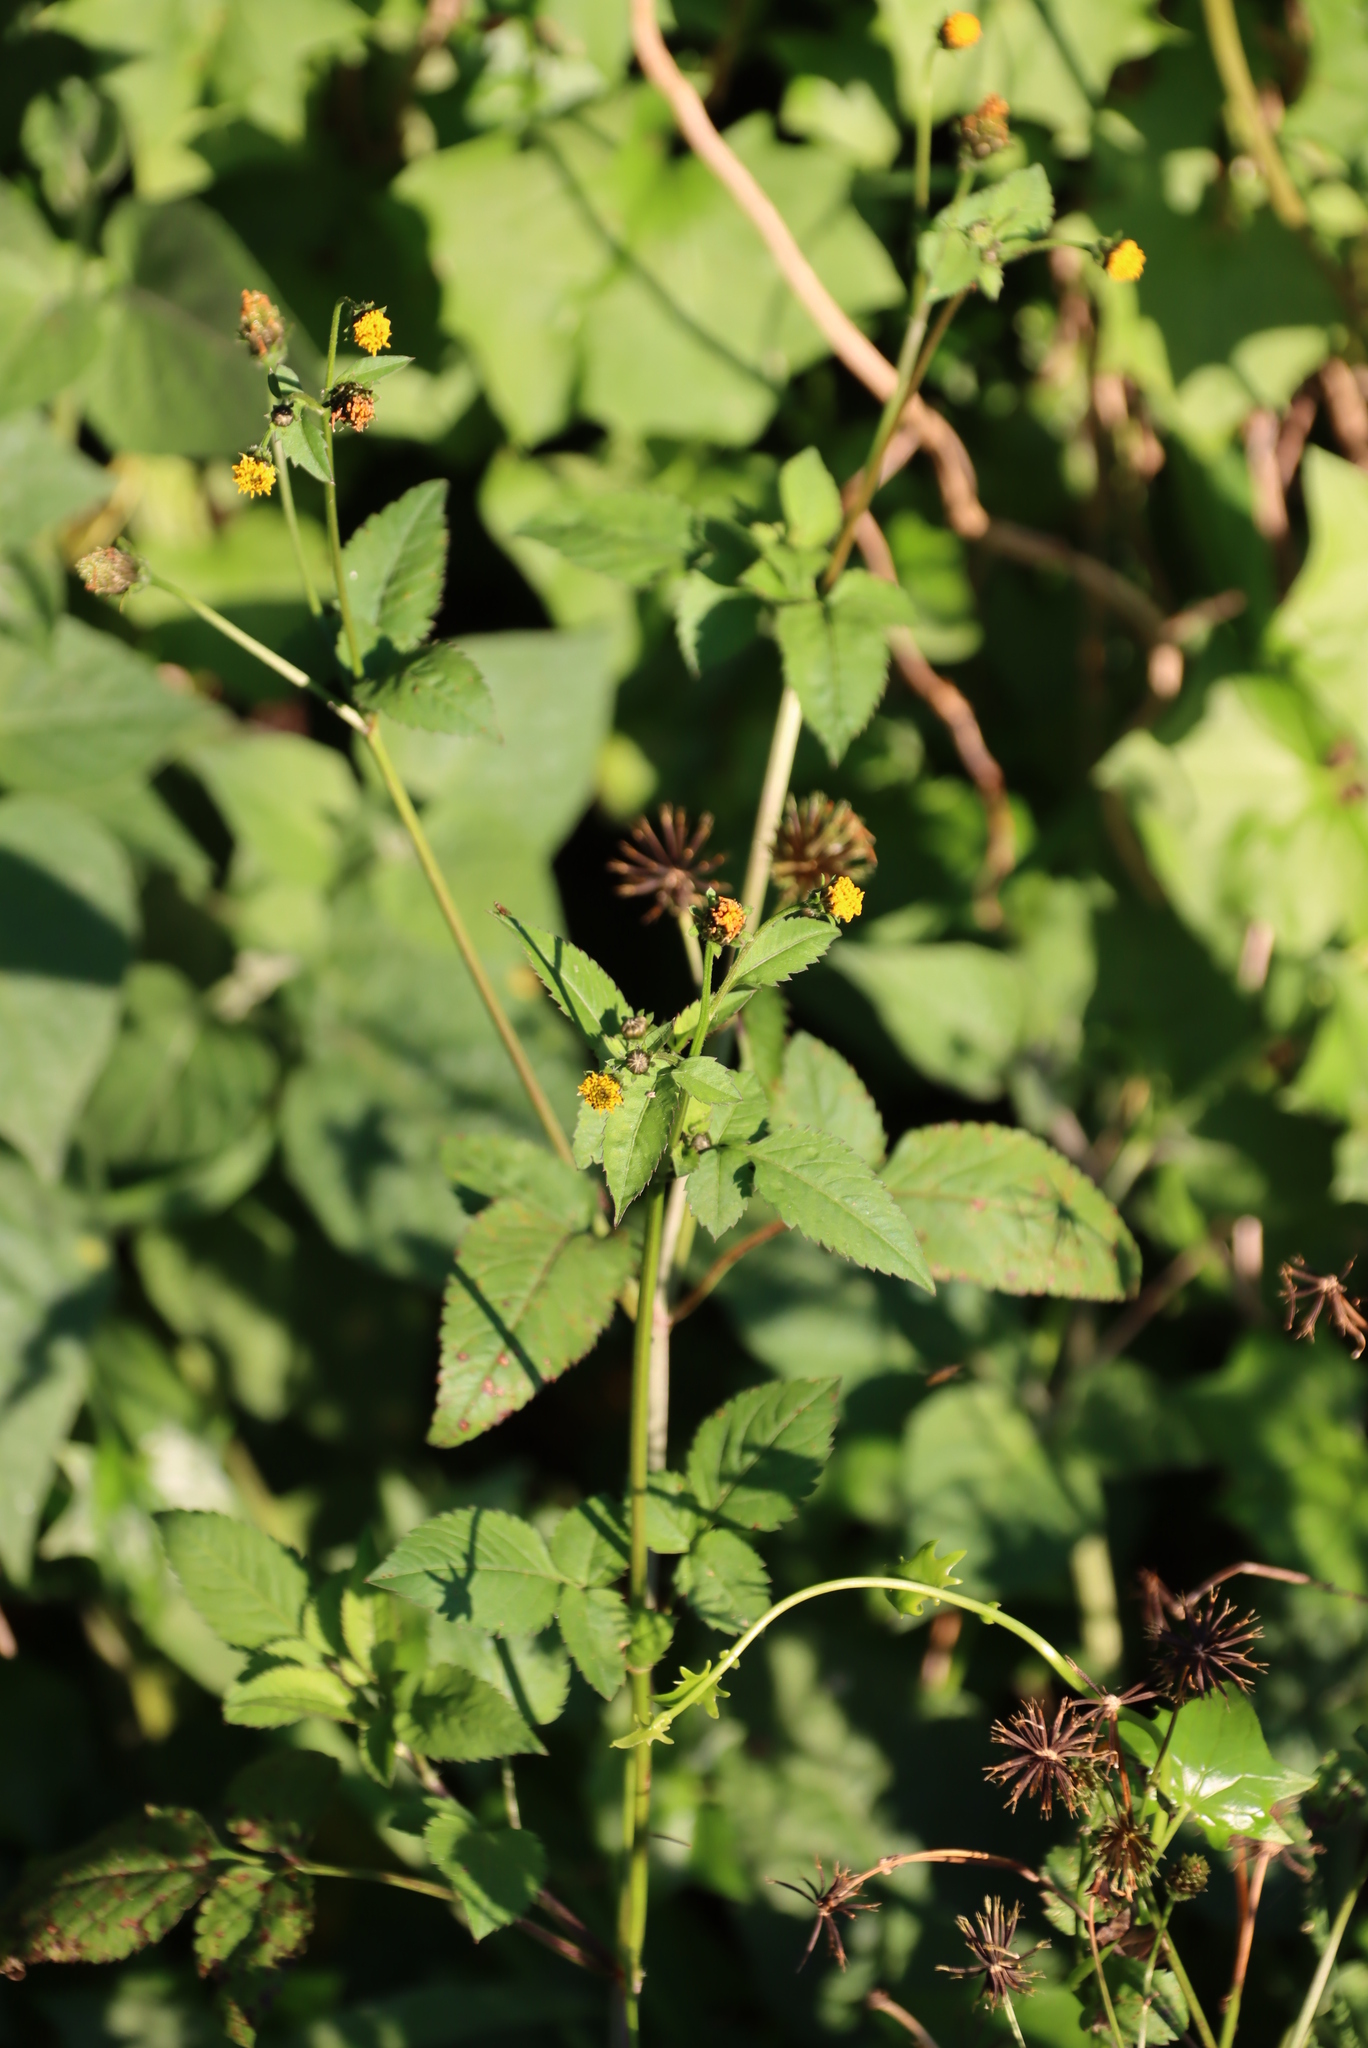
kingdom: Plantae
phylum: Tracheophyta
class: Magnoliopsida
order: Asterales
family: Asteraceae
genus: Bidens
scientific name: Bidens pilosa
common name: Black-jack
